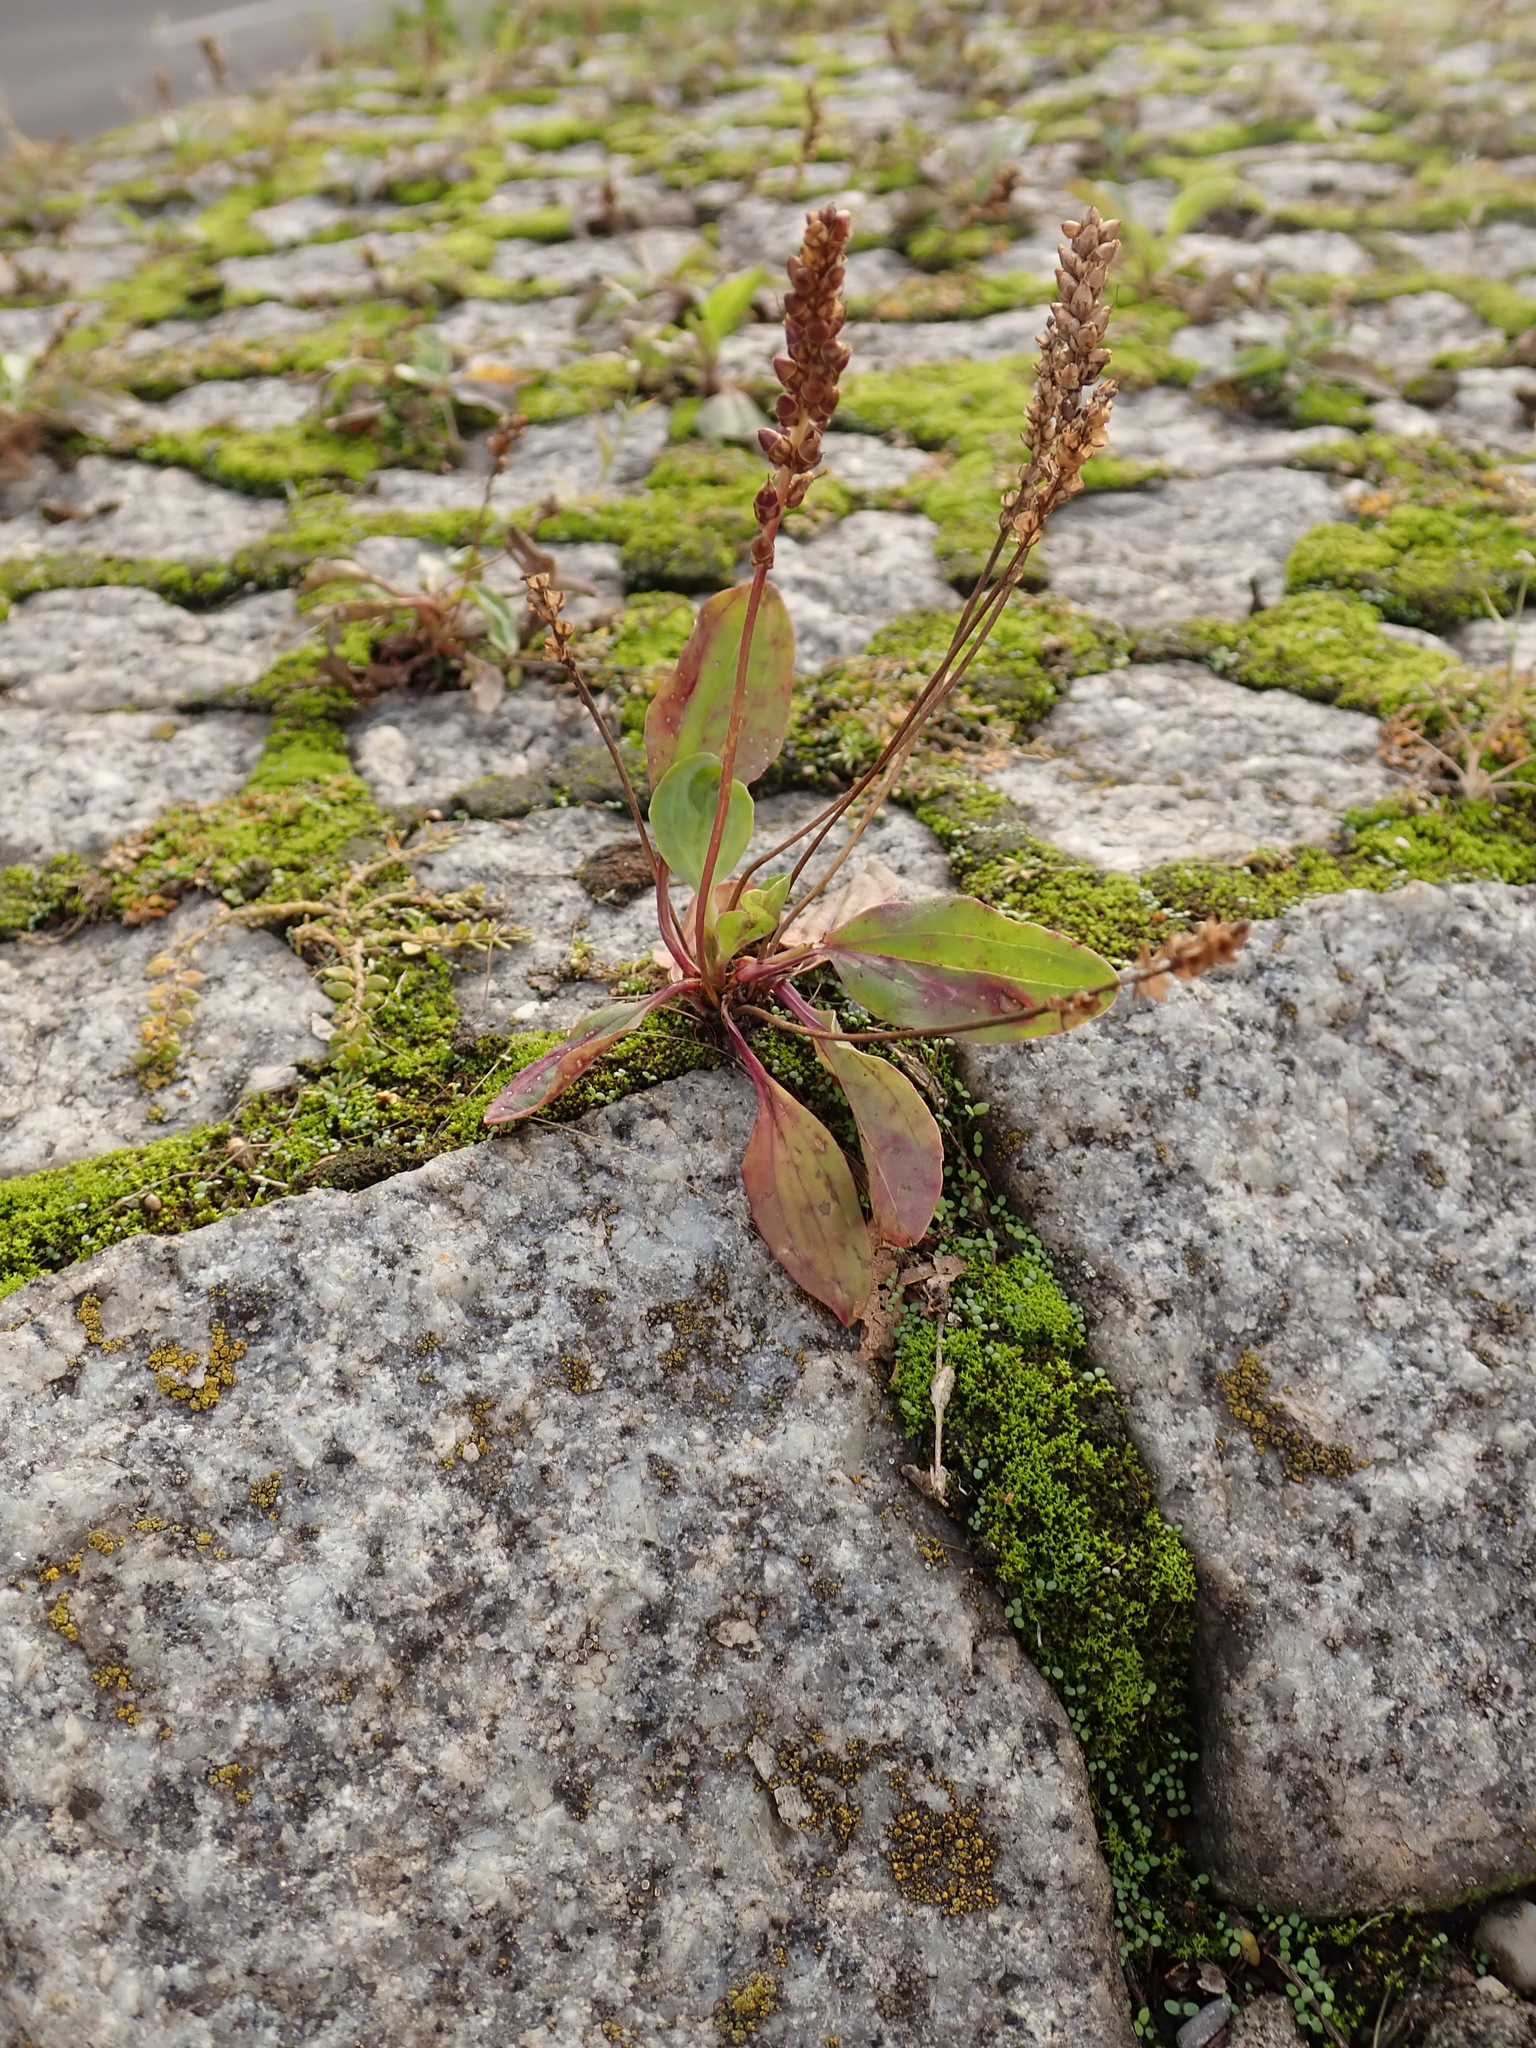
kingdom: Plantae
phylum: Tracheophyta
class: Magnoliopsida
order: Lamiales
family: Plantaginaceae
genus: Plantago
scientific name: Plantago major
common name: Common plantain
